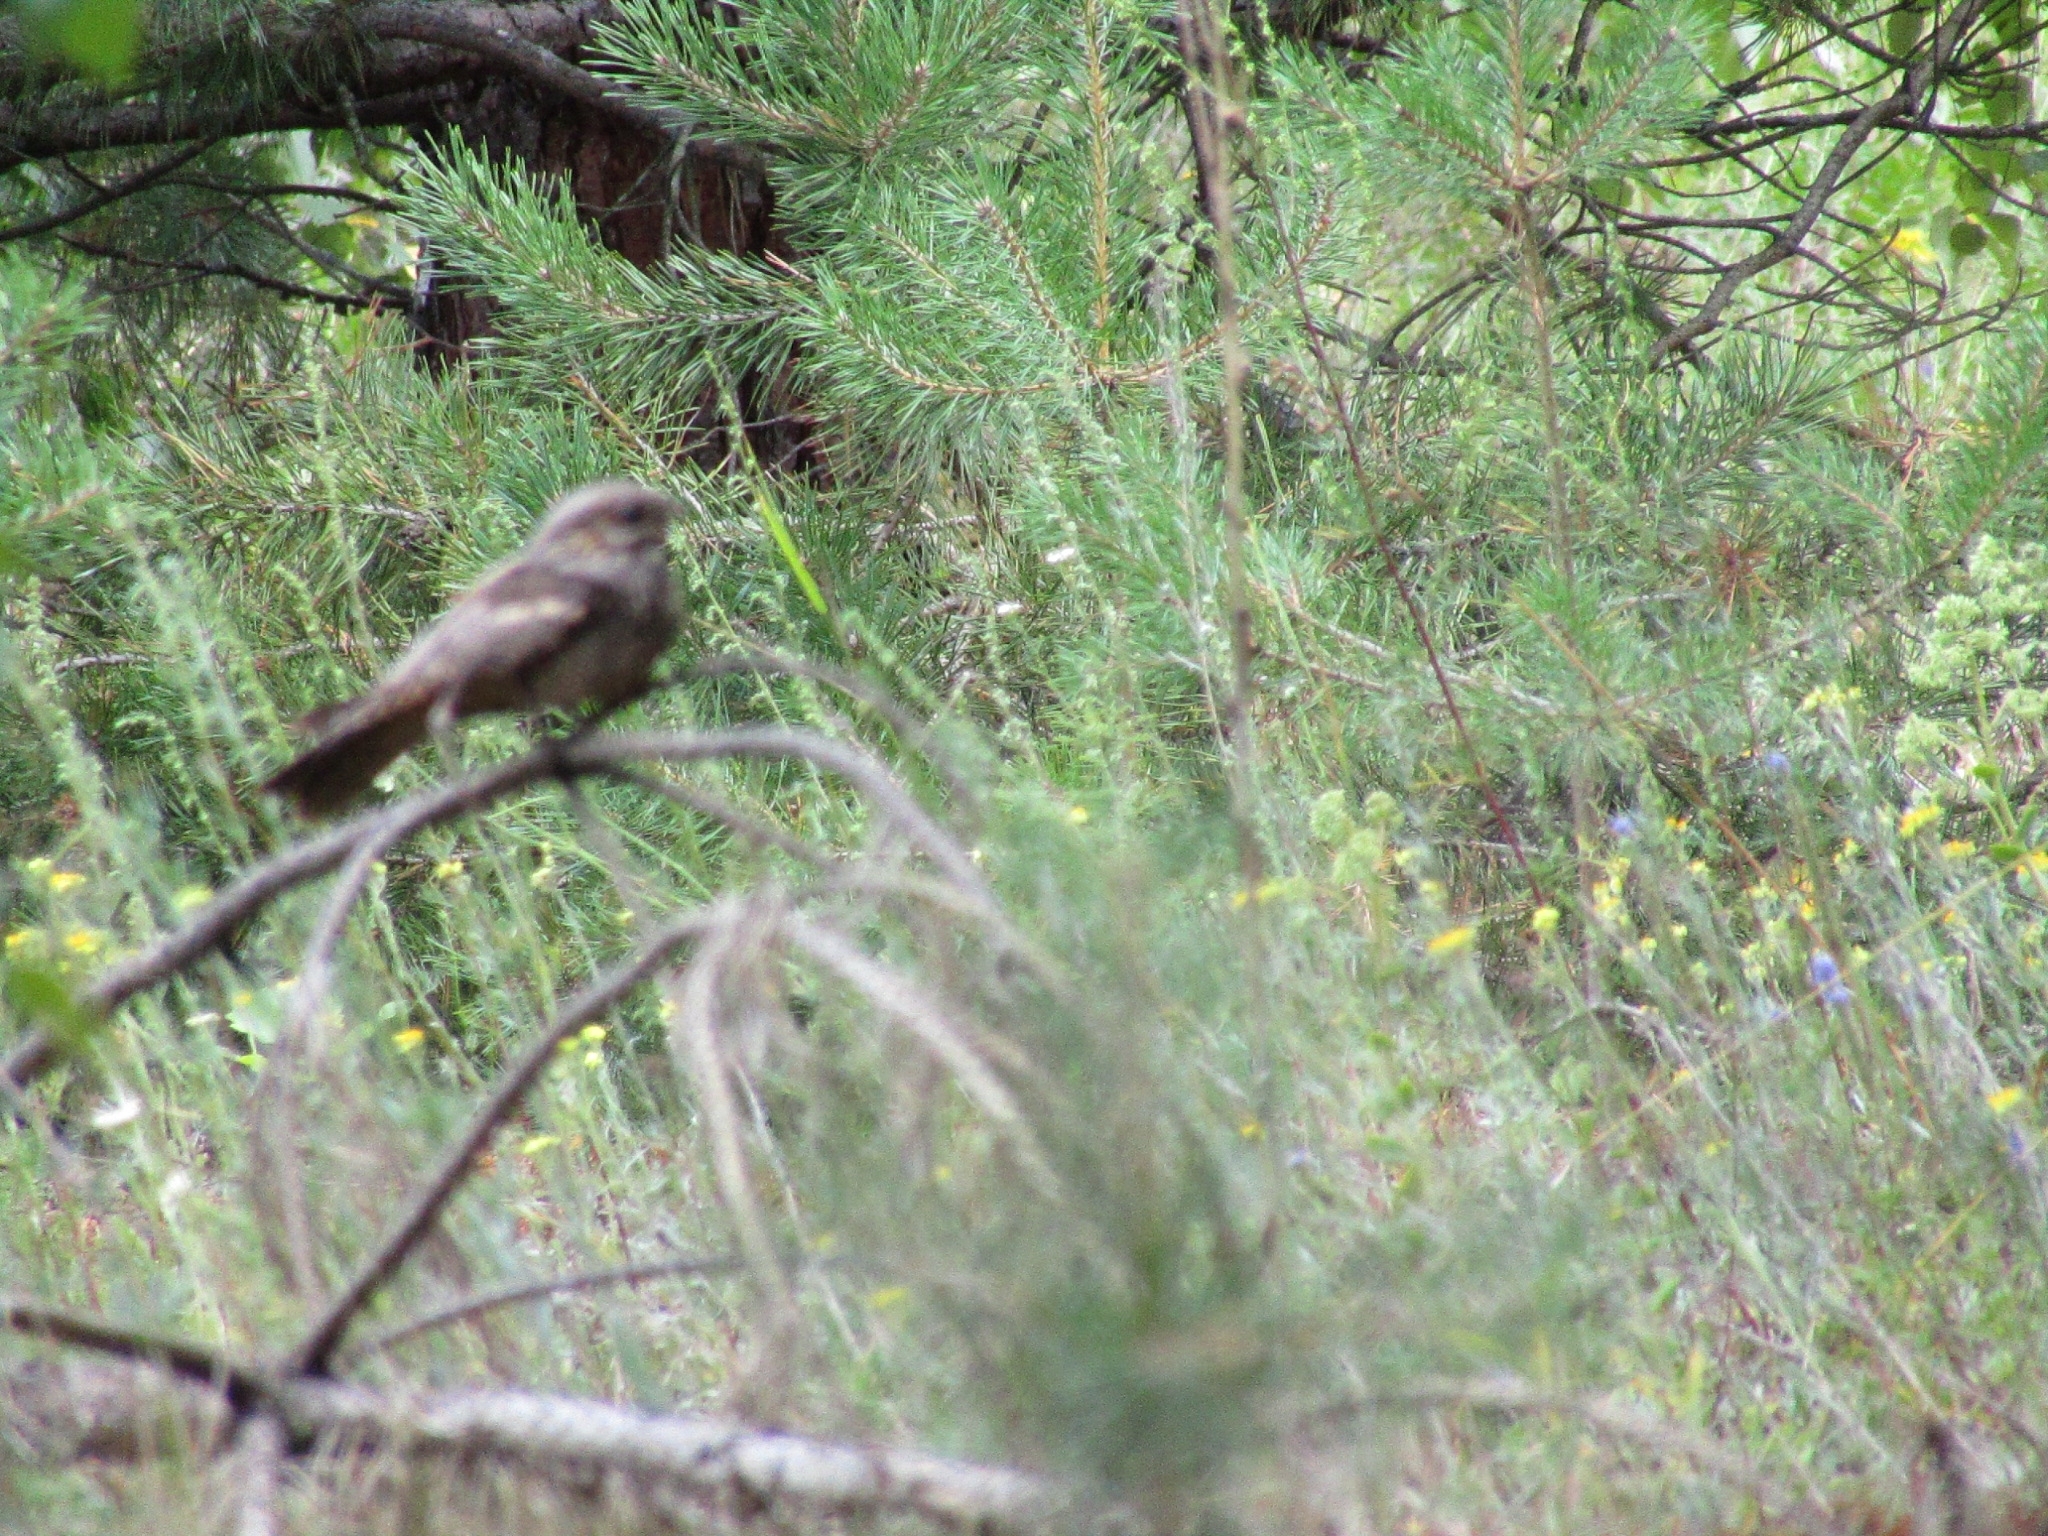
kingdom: Animalia
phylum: Chordata
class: Aves
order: Caprimulgiformes
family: Caprimulgidae
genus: Caprimulgus
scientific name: Caprimulgus europaeus
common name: European nightjar
